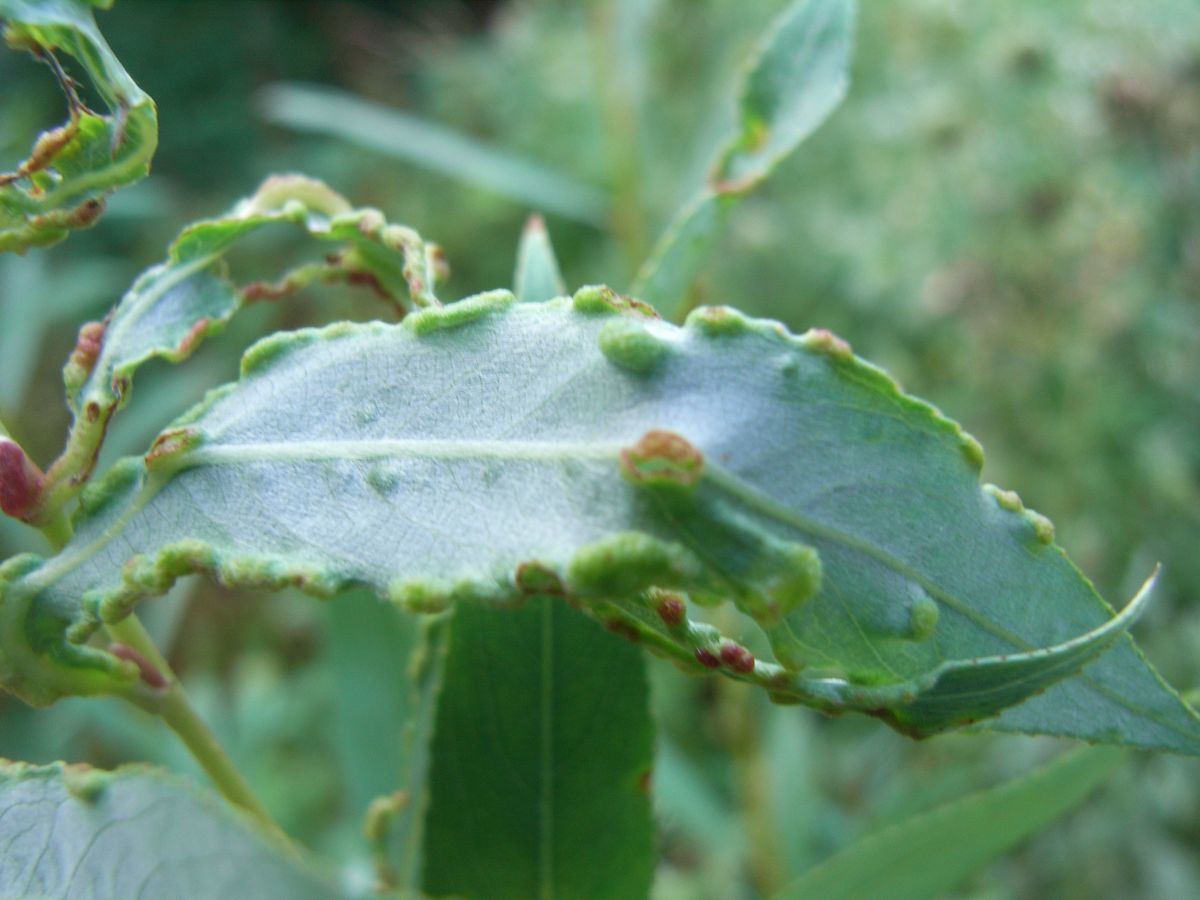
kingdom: Animalia
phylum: Arthropoda
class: Arachnida
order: Trombidiformes
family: Eriophyidae
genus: Aculus
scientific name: Aculus craspedobius
